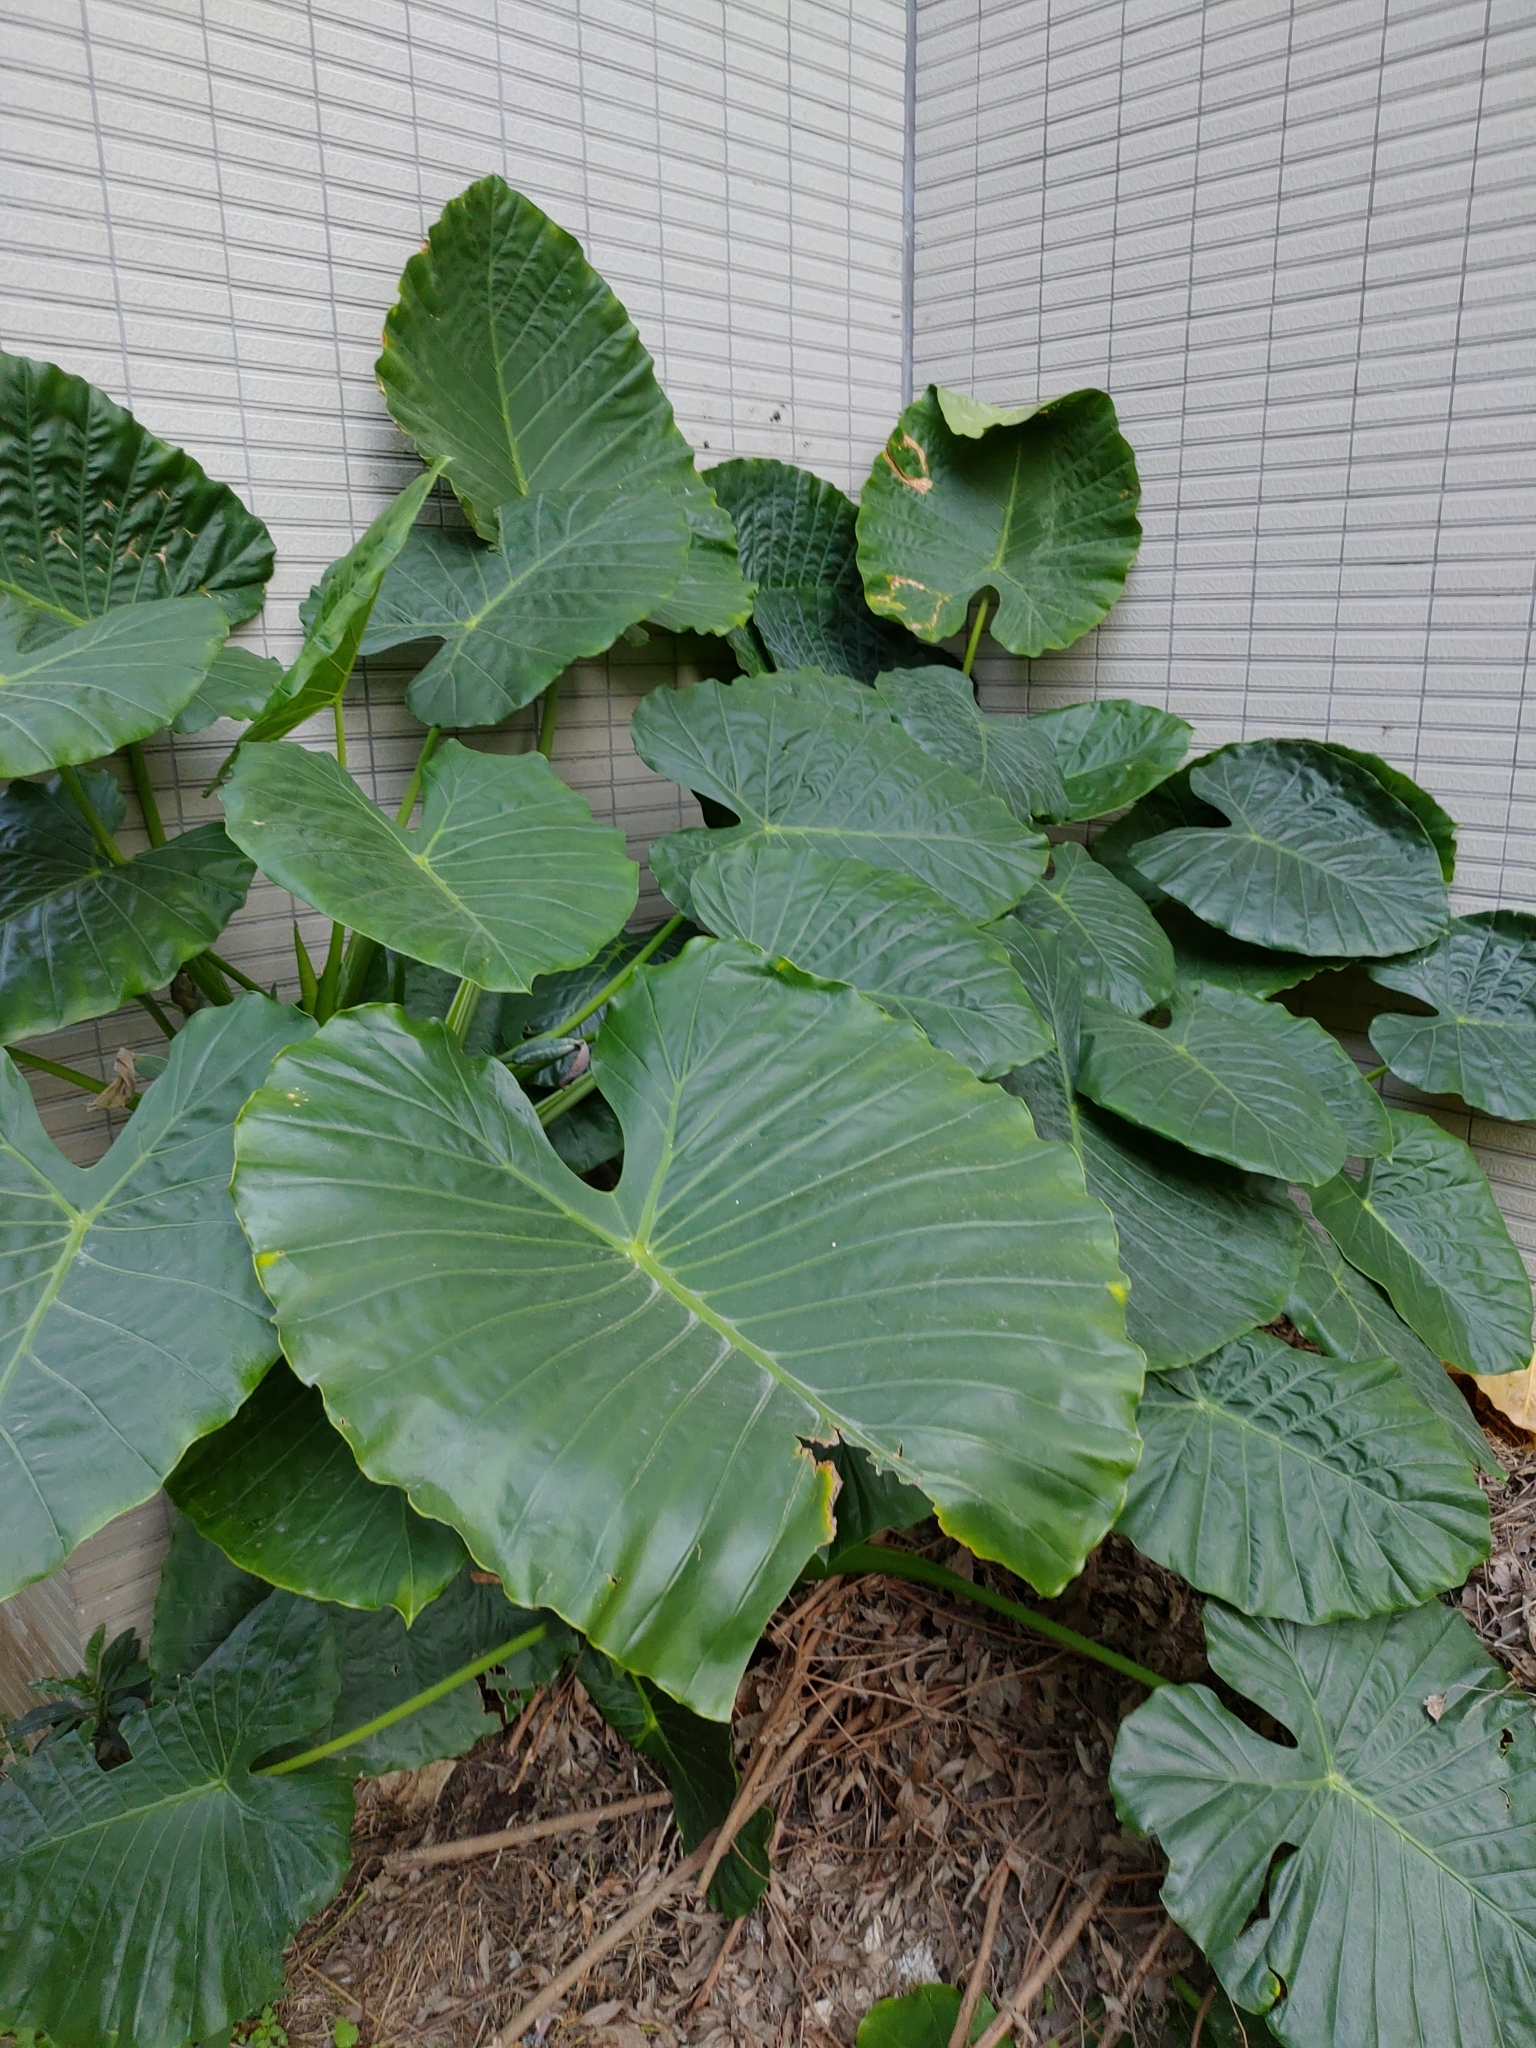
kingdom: Plantae
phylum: Tracheophyta
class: Liliopsida
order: Alismatales
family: Araceae
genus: Alocasia
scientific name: Alocasia odora
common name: Asian taro
